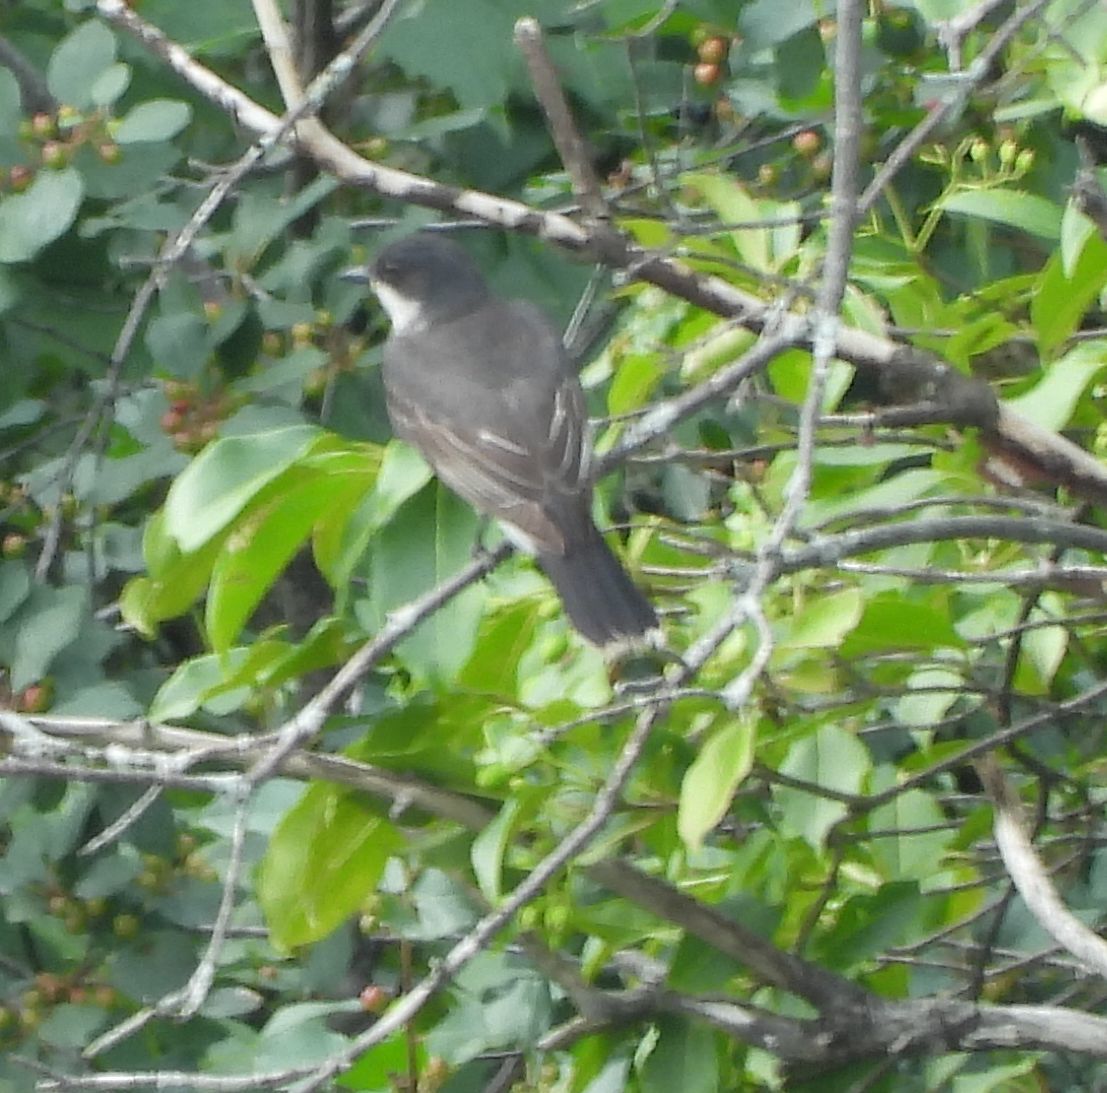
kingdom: Animalia
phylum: Chordata
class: Aves
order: Passeriformes
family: Tyrannidae
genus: Tyrannus
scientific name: Tyrannus tyrannus
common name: Eastern kingbird
